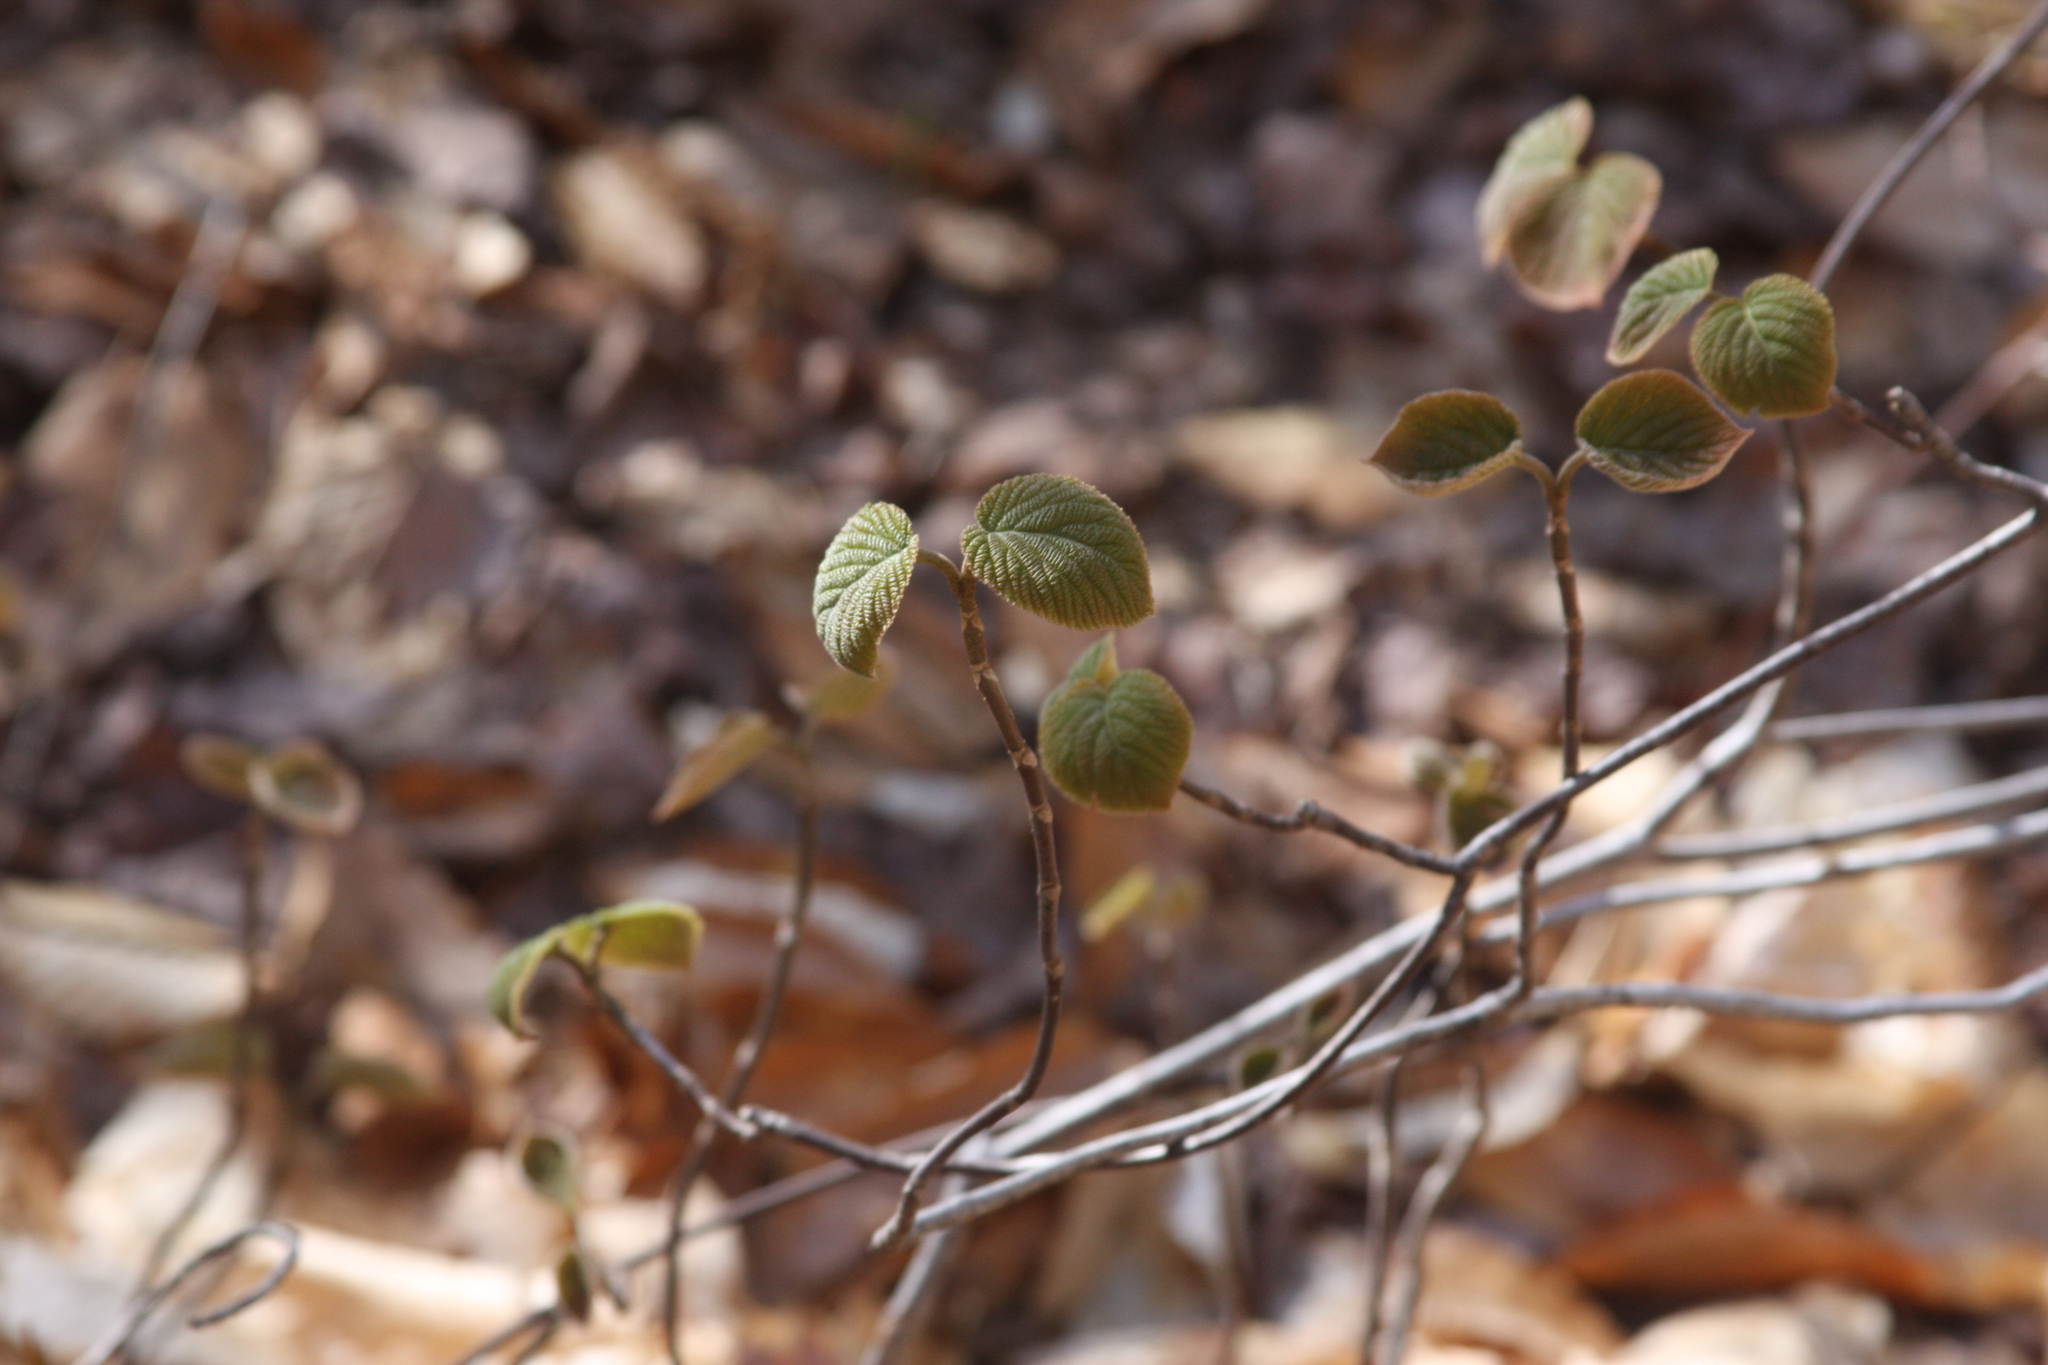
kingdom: Plantae
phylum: Tracheophyta
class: Magnoliopsida
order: Dipsacales
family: Viburnaceae
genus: Viburnum
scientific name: Viburnum lantanoides
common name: Hobblebush
